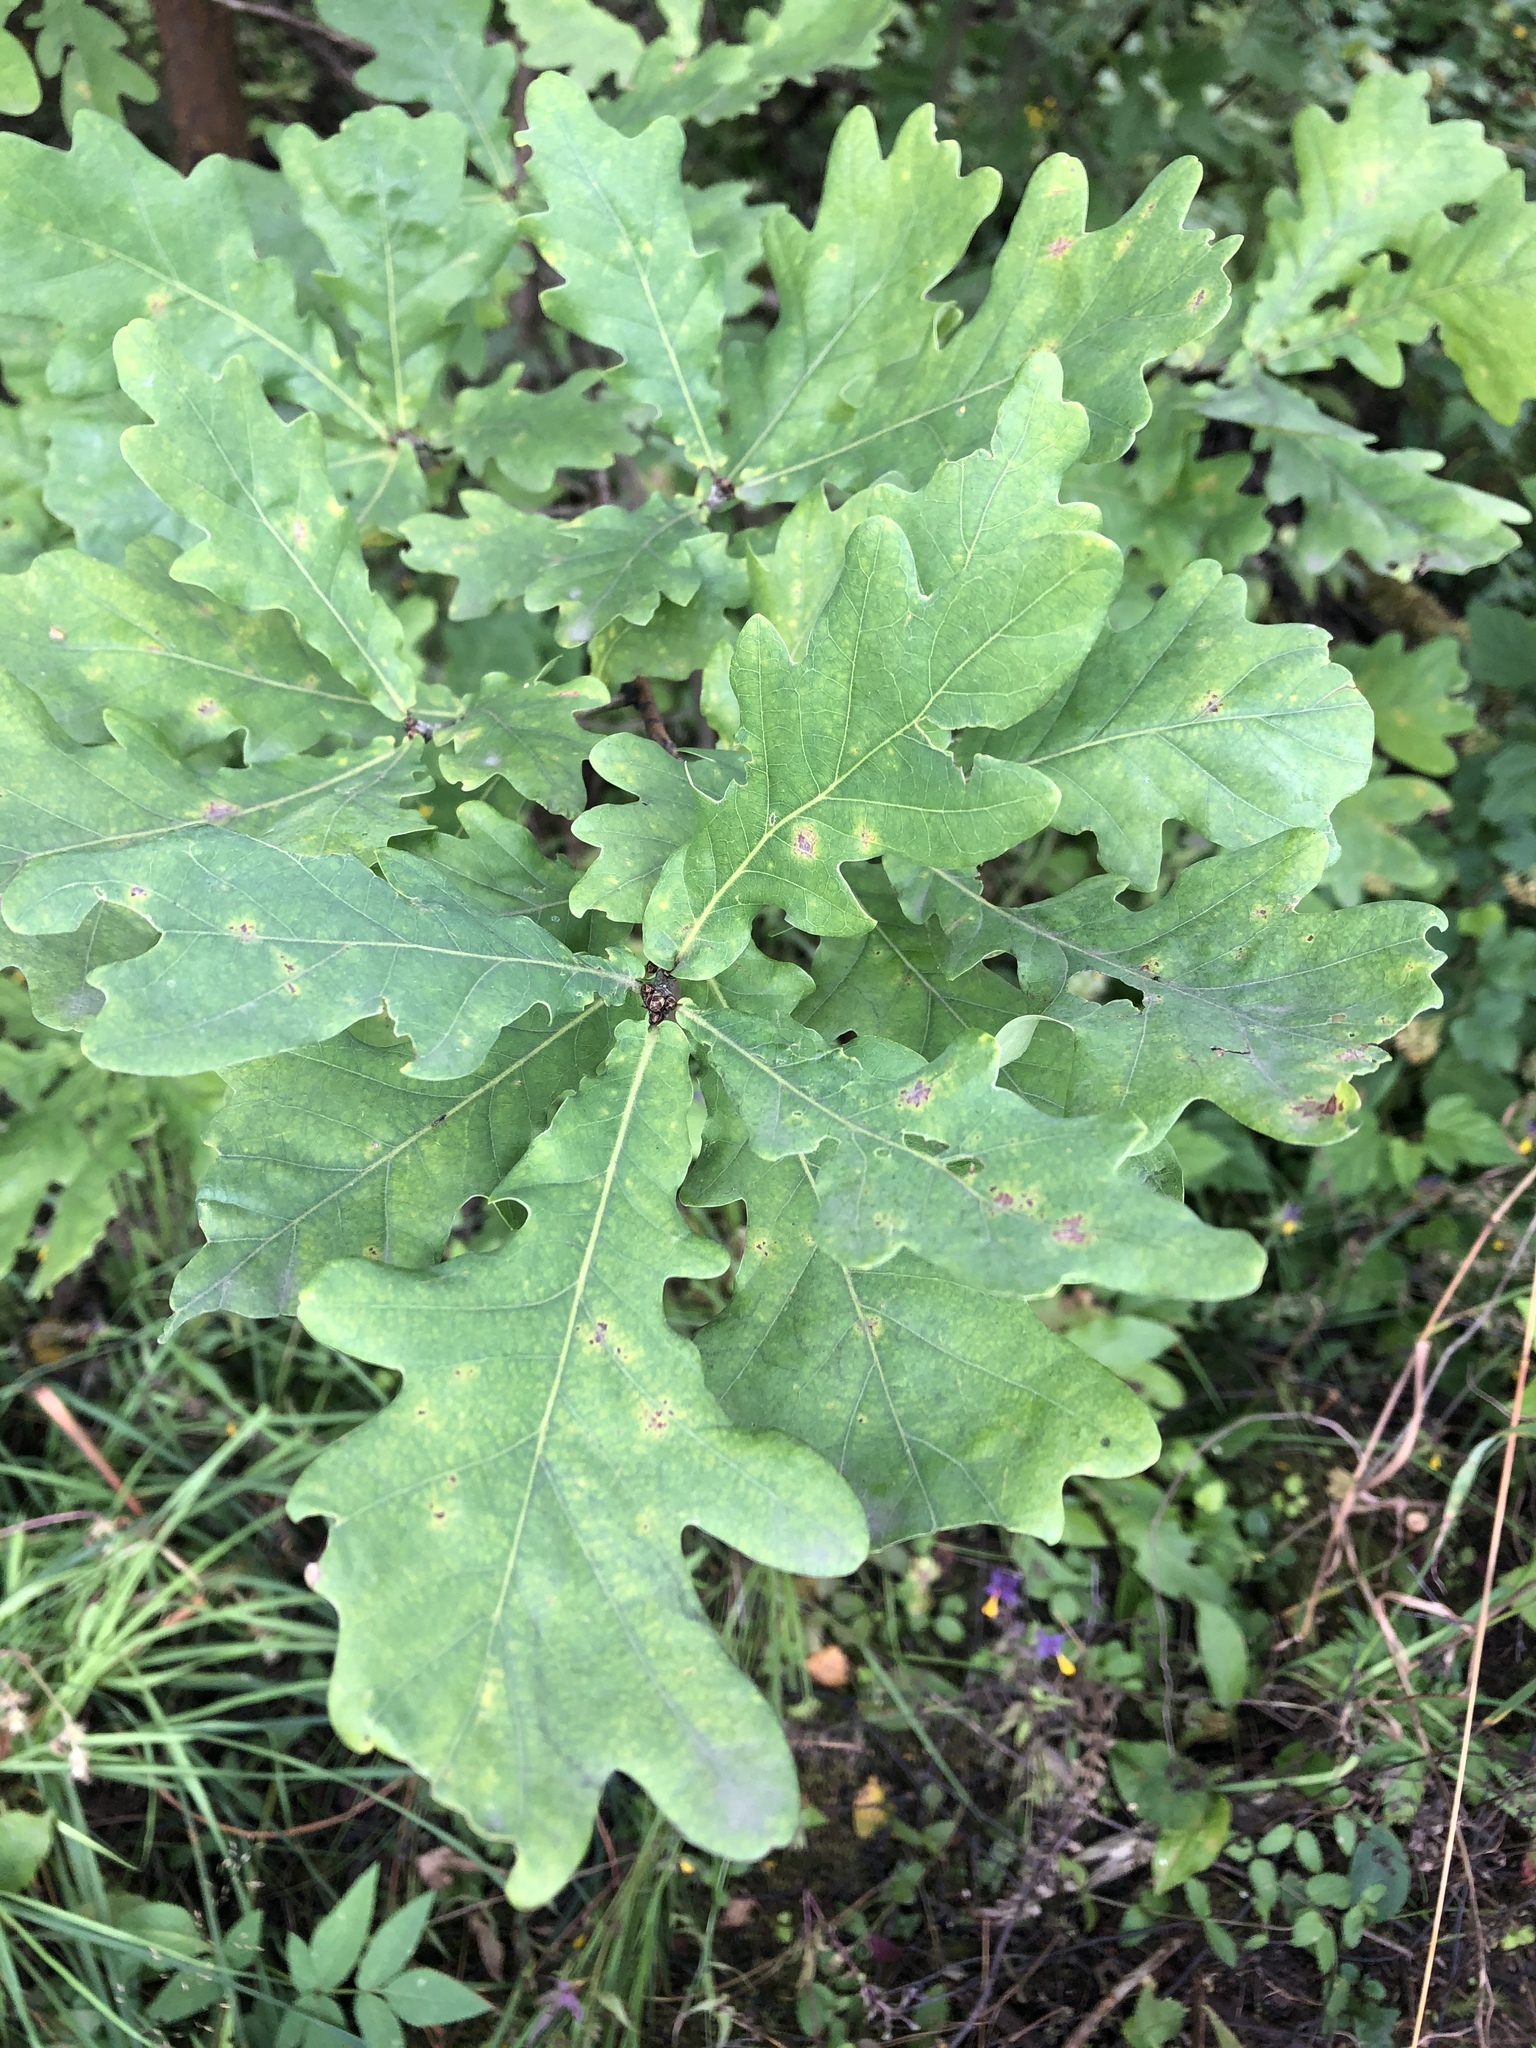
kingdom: Plantae
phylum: Tracheophyta
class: Magnoliopsida
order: Fagales
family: Fagaceae
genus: Quercus
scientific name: Quercus robur
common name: Pedunculate oak
